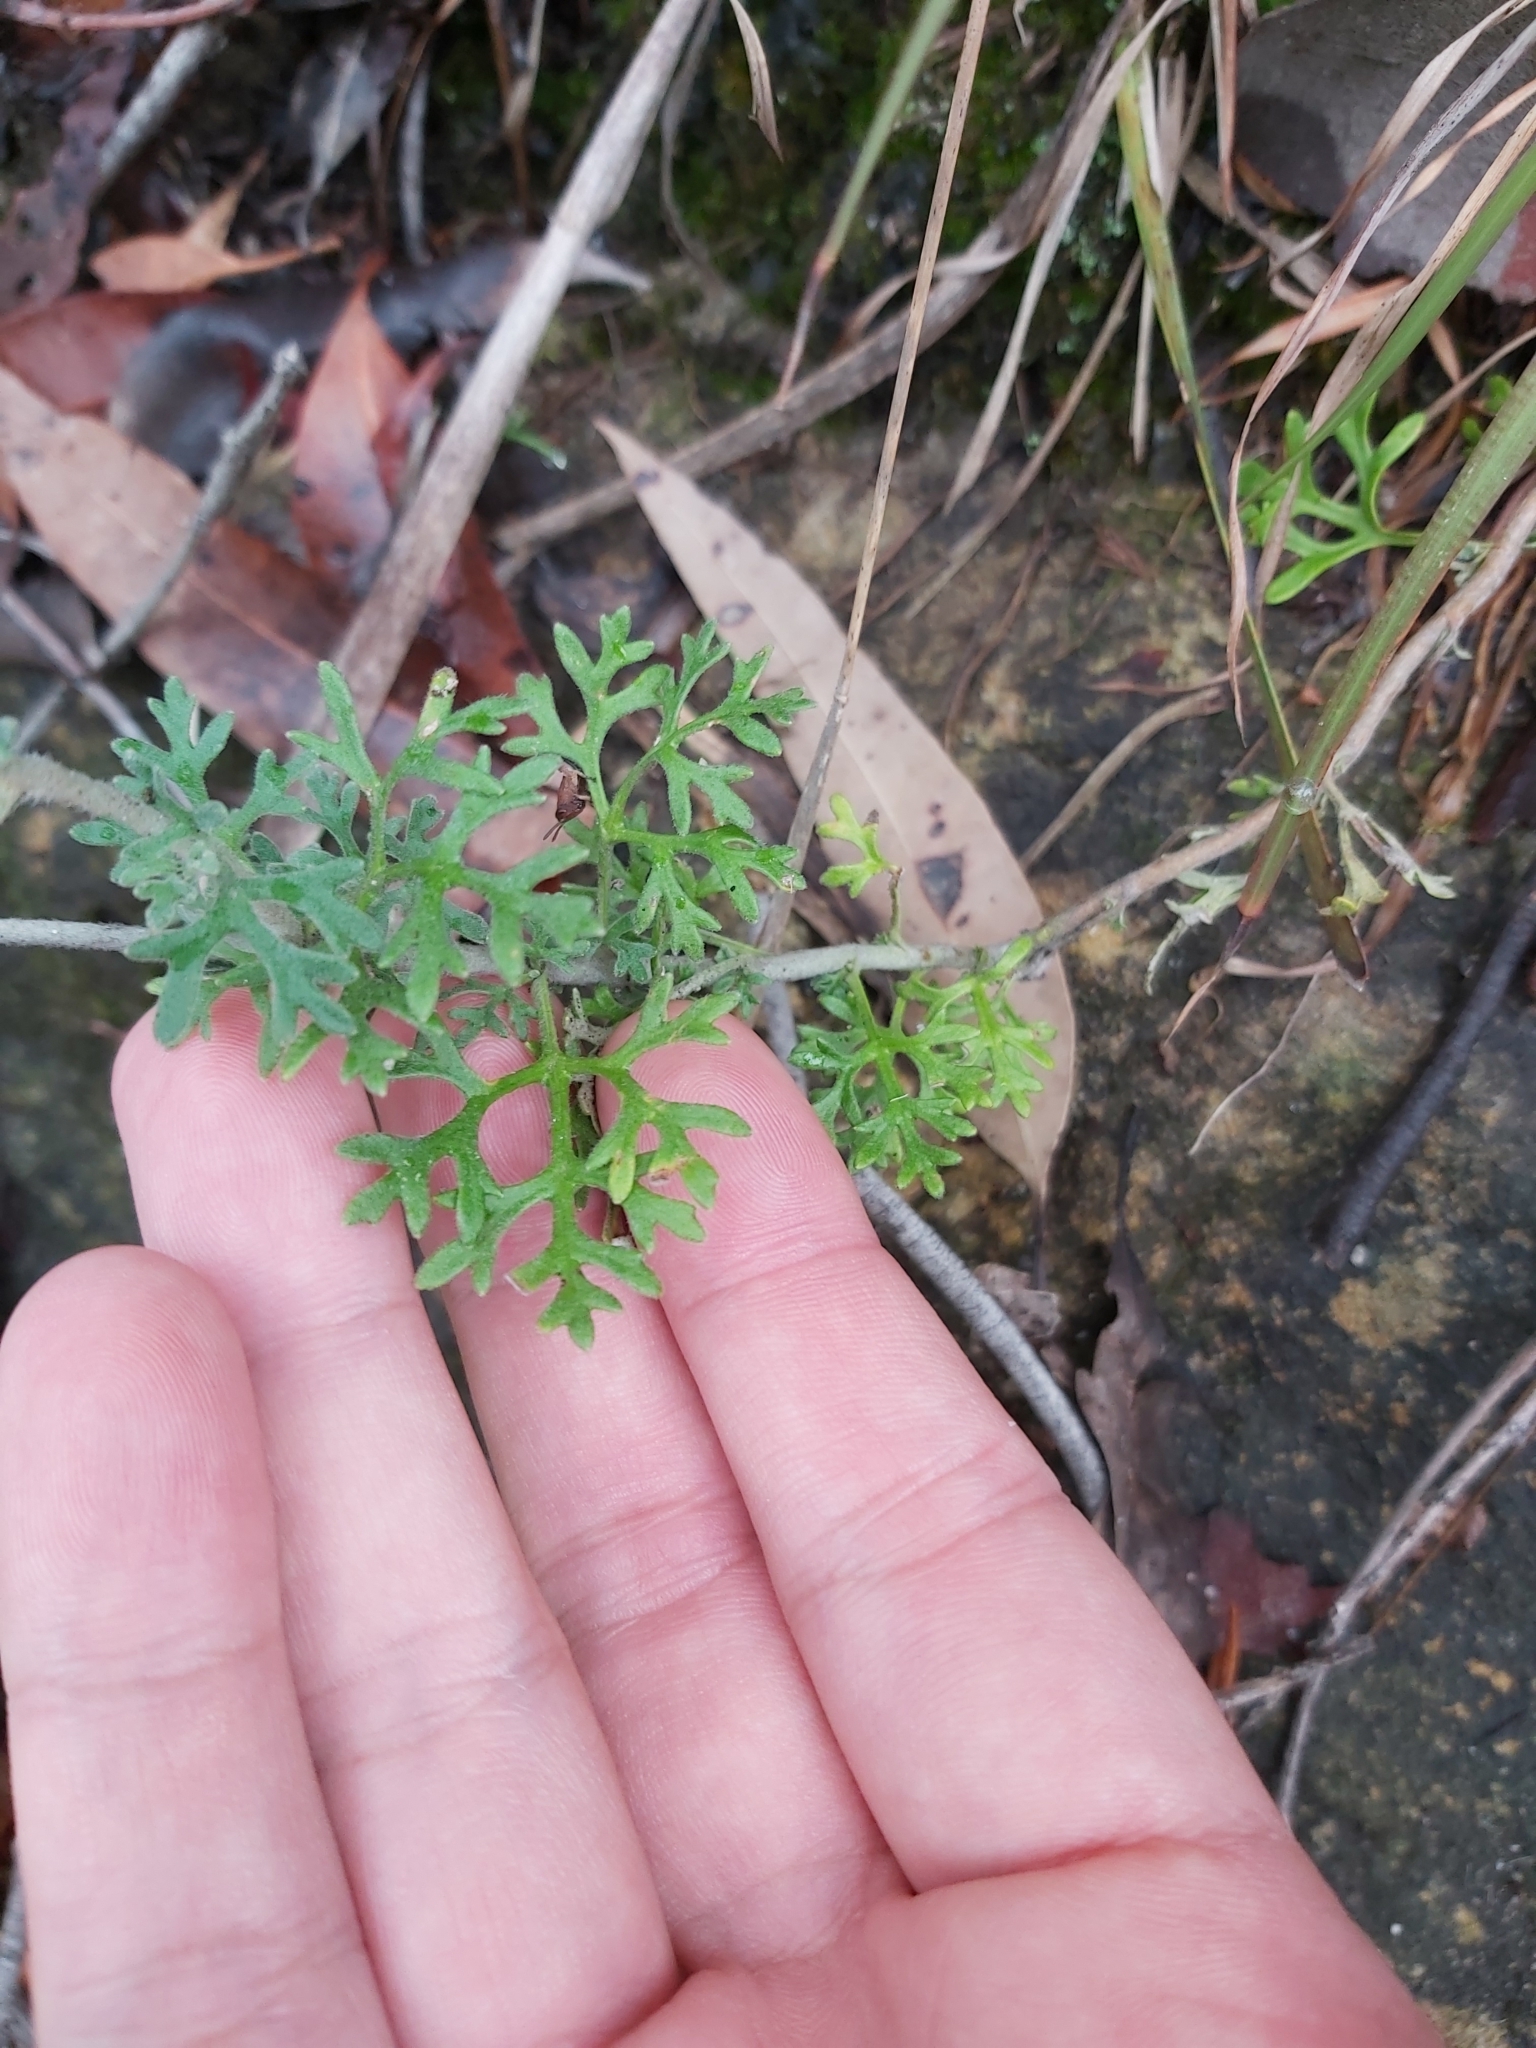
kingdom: Plantae
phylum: Tracheophyta
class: Magnoliopsida
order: Apiales
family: Apiaceae
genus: Actinotus
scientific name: Actinotus helianthi
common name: Flannel-flower
